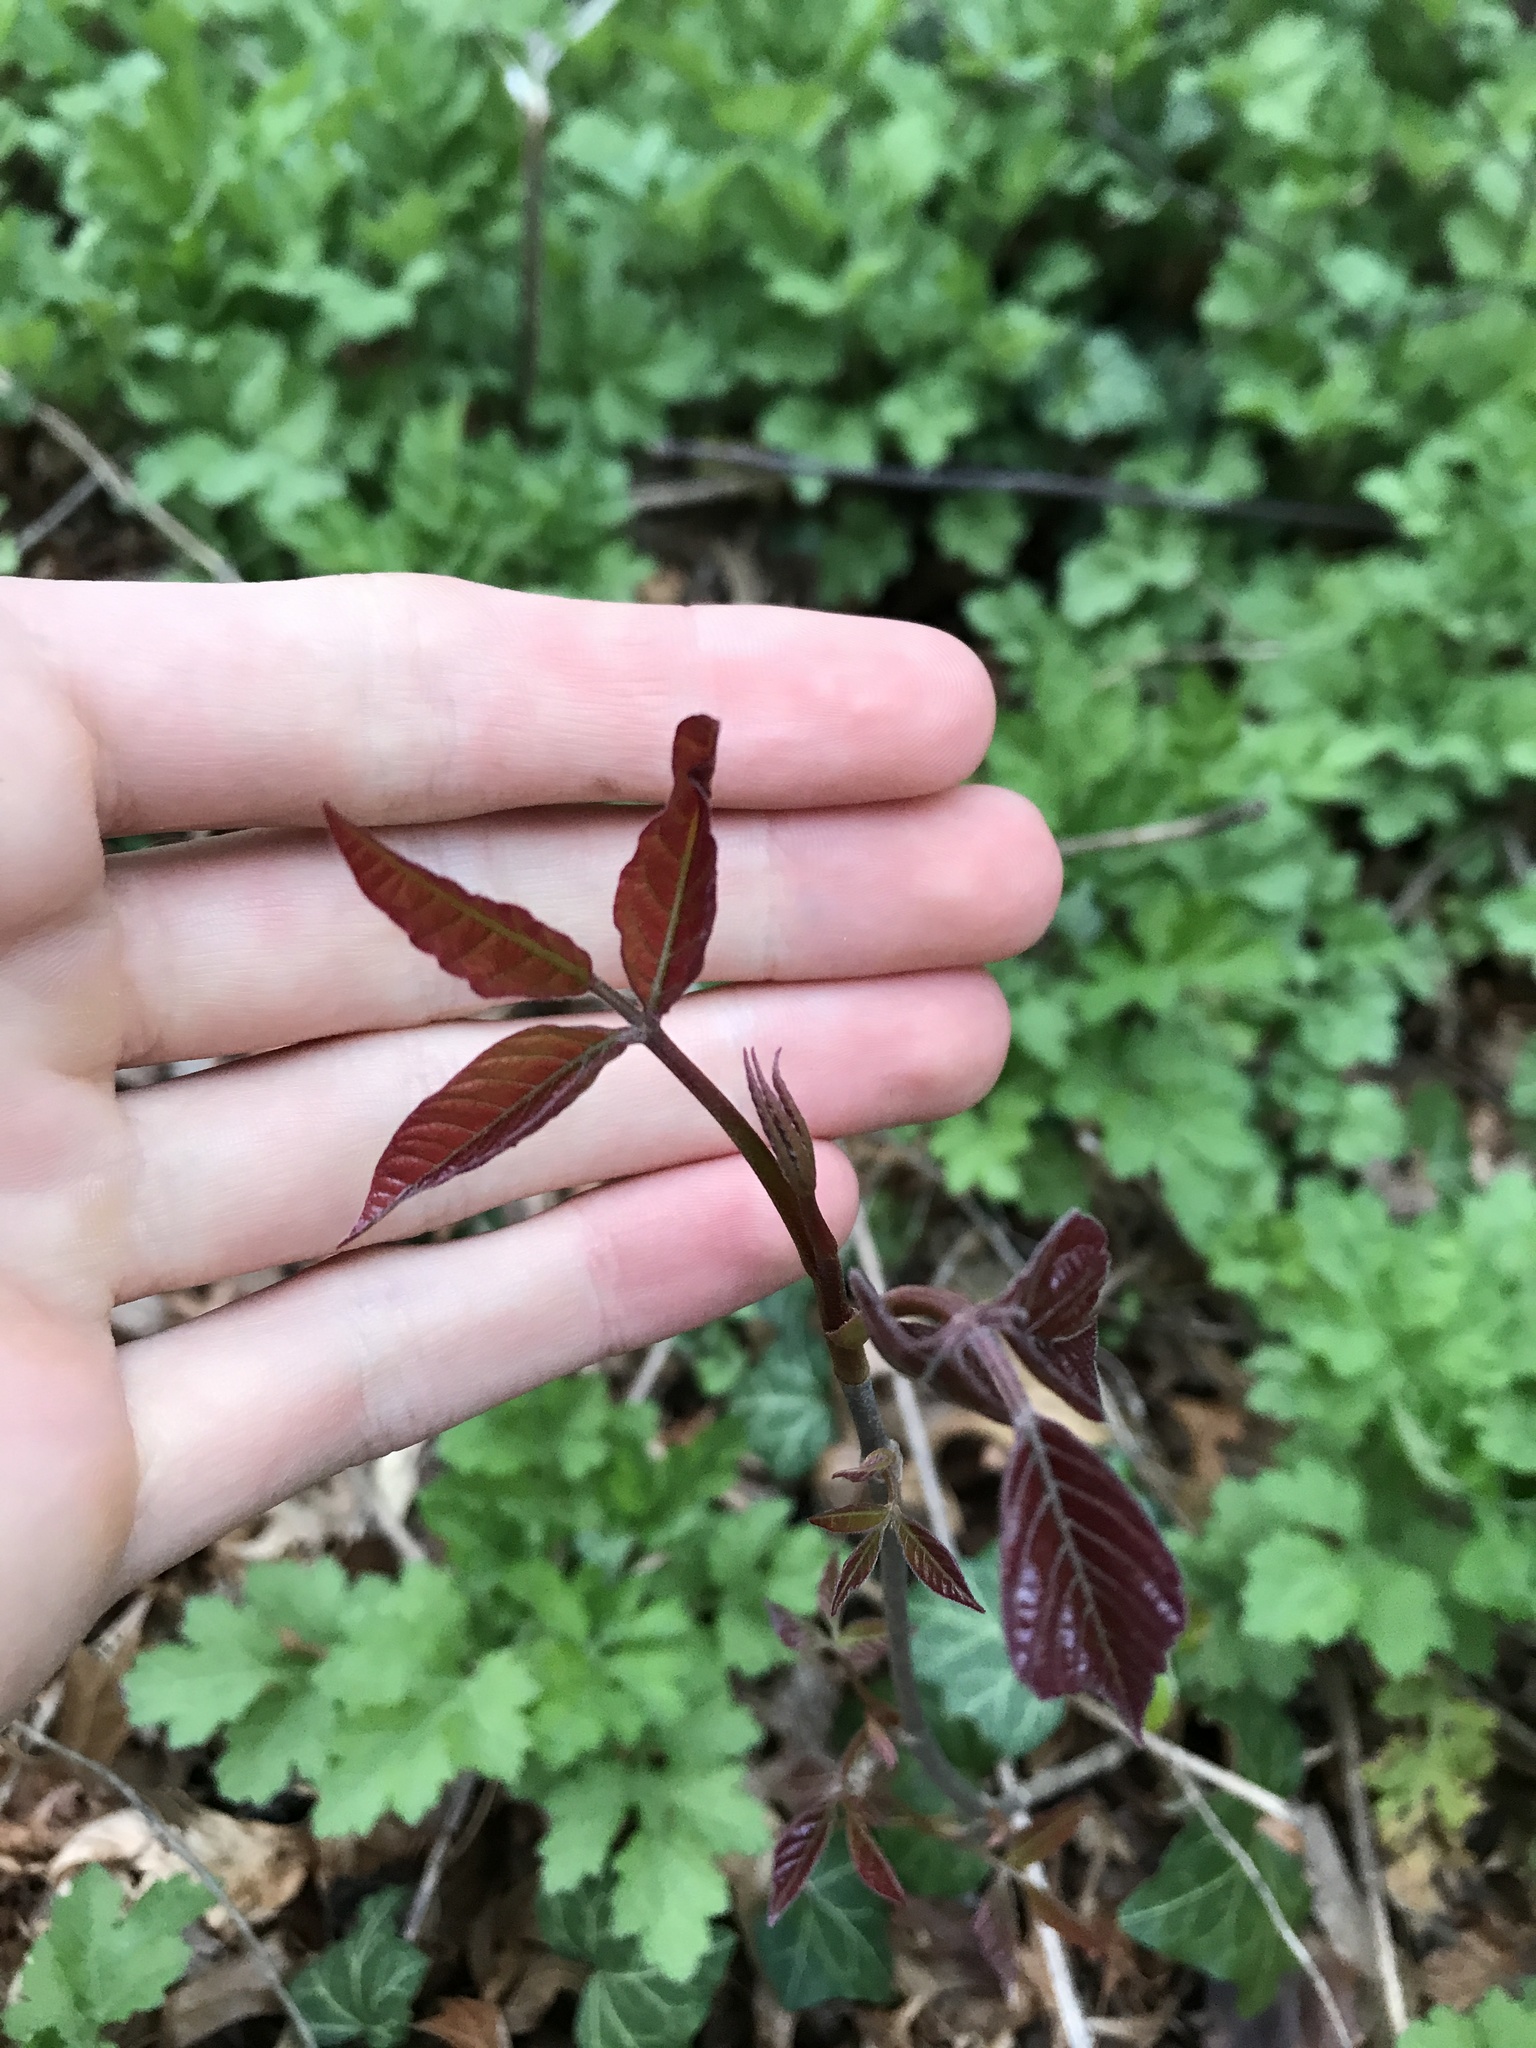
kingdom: Plantae
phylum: Tracheophyta
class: Magnoliopsida
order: Sapindales
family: Anacardiaceae
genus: Toxicodendron
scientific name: Toxicodendron radicans
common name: Poison ivy
